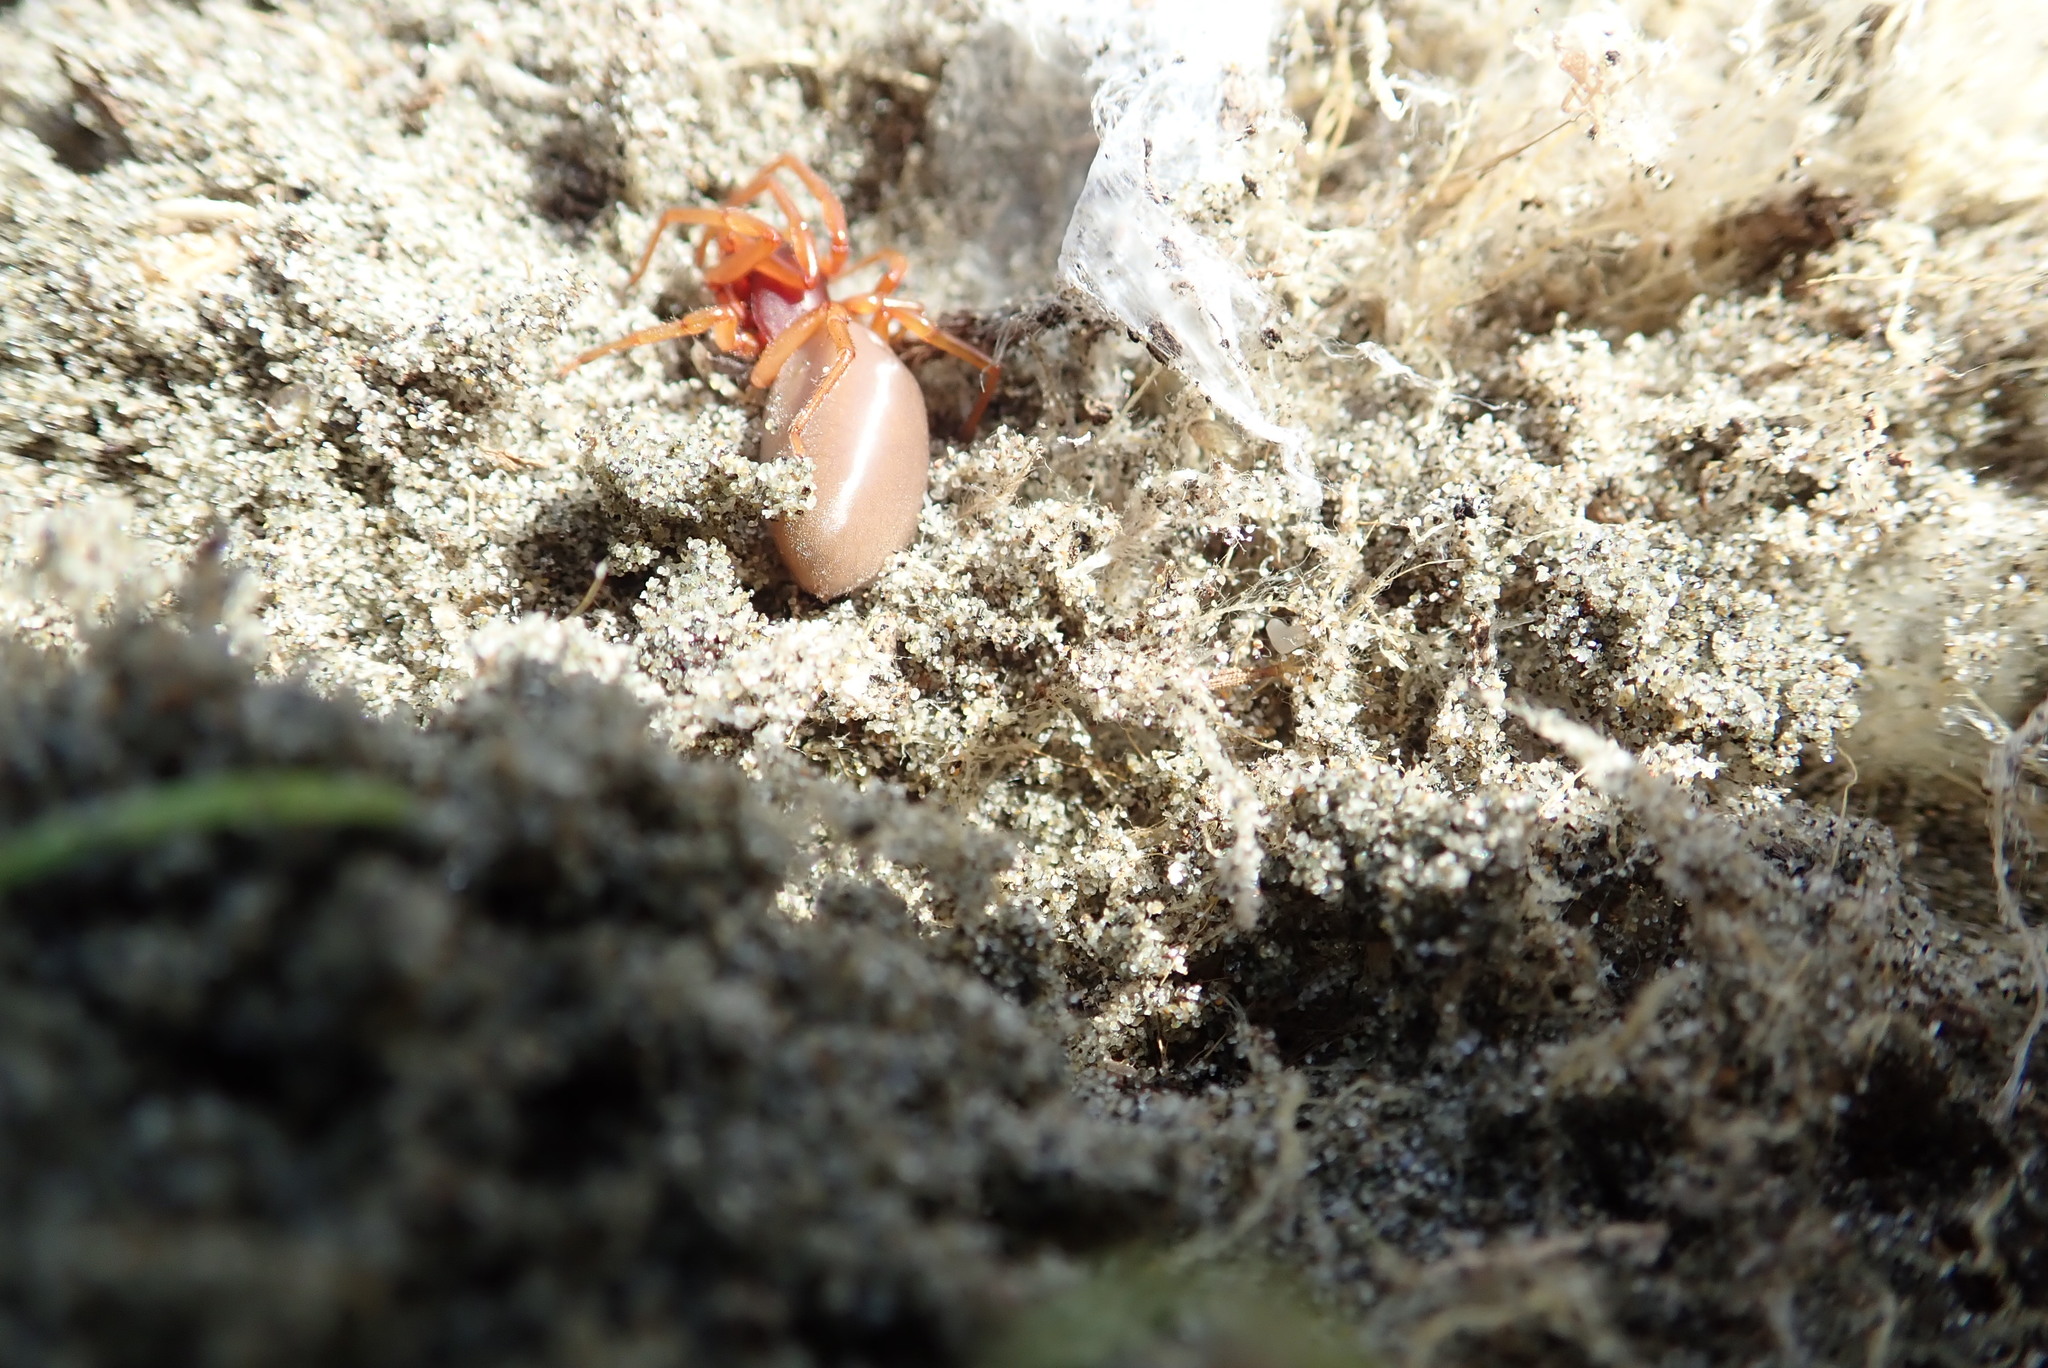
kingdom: Animalia
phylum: Arthropoda
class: Arachnida
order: Araneae
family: Dysderidae
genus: Dysdera
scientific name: Dysdera crocata
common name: Woodlouse spider
